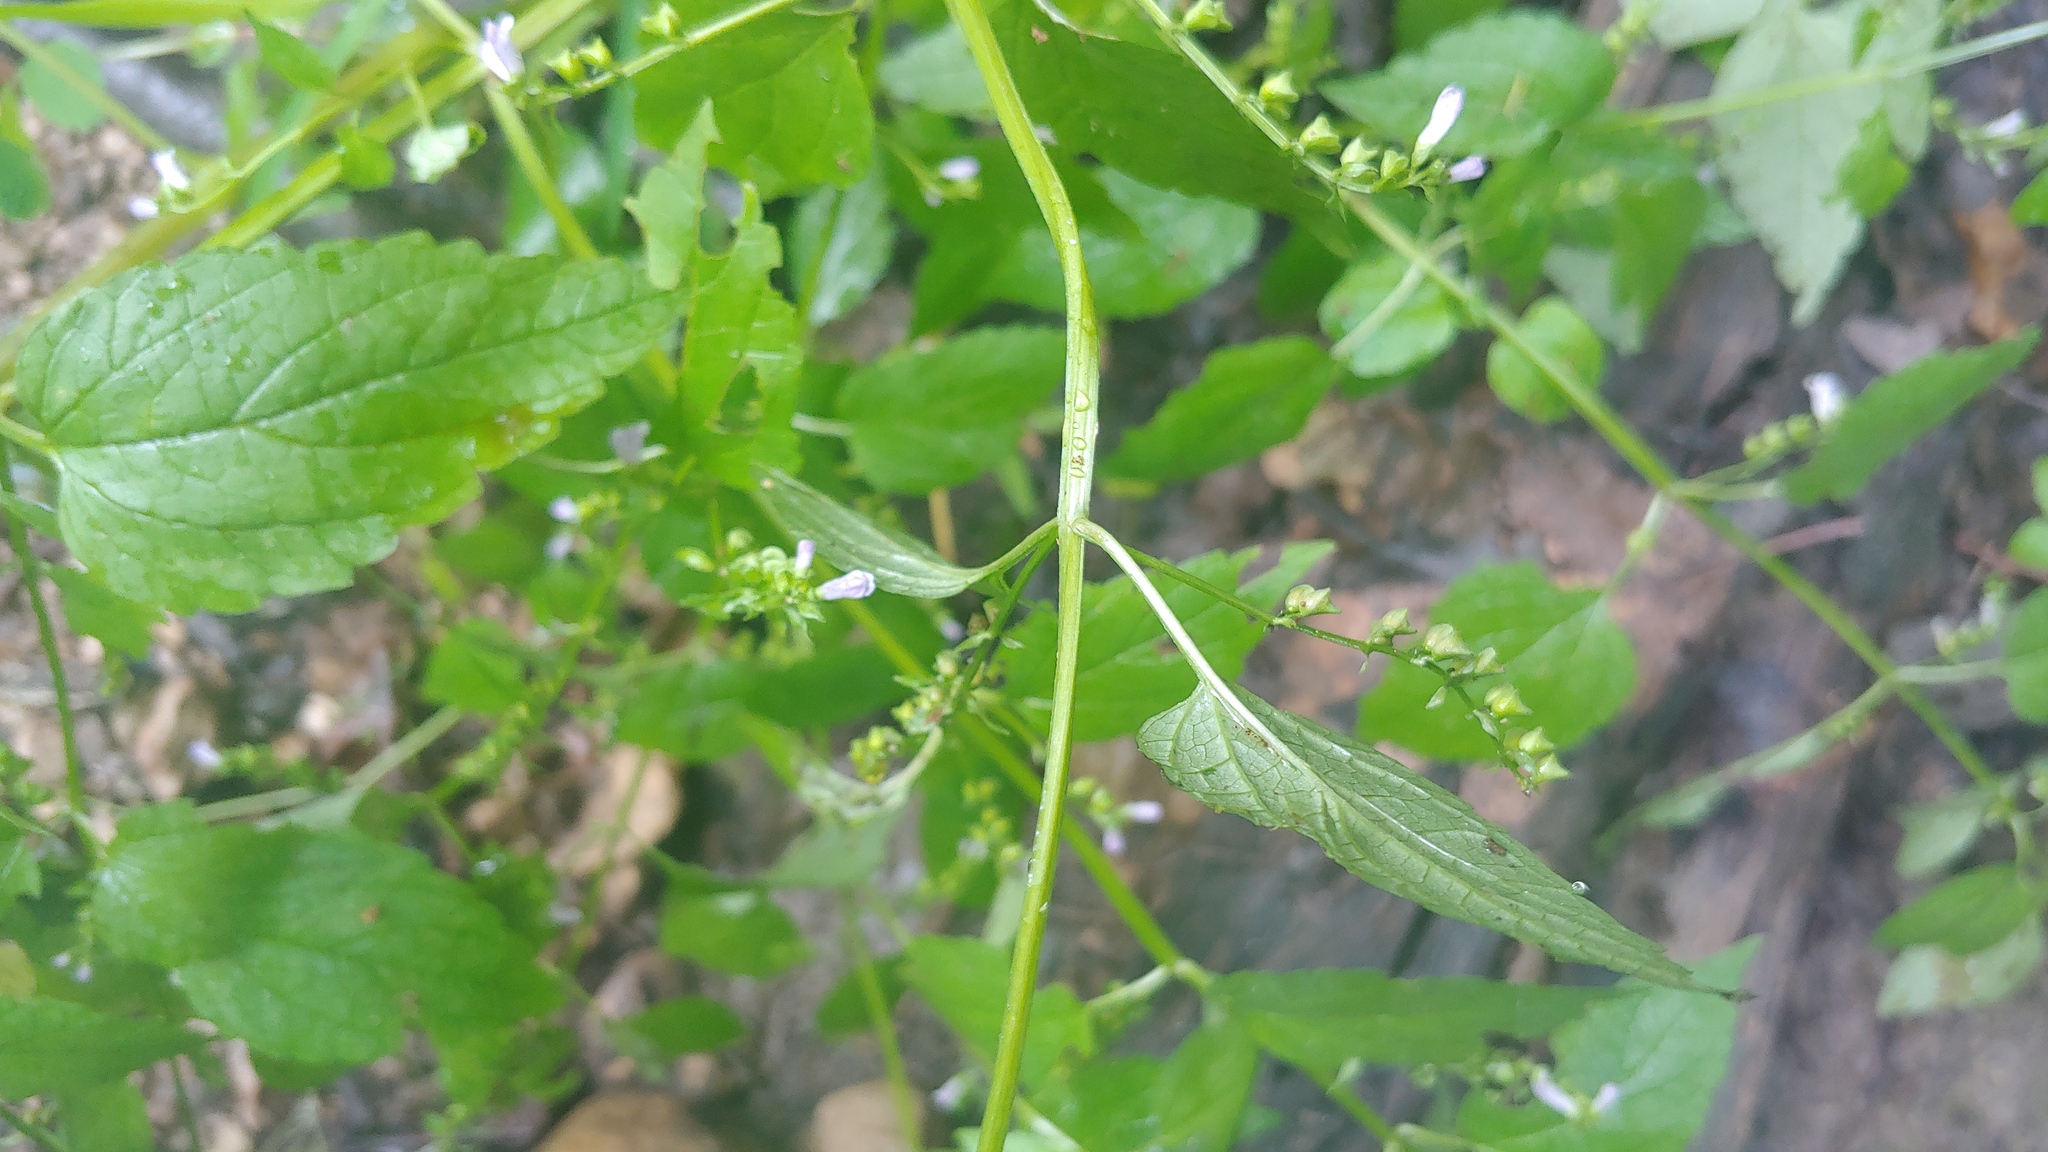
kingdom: Plantae
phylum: Tracheophyta
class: Magnoliopsida
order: Lamiales
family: Lamiaceae
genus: Scutellaria
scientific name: Scutellaria lateriflora
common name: Blue skullcap
